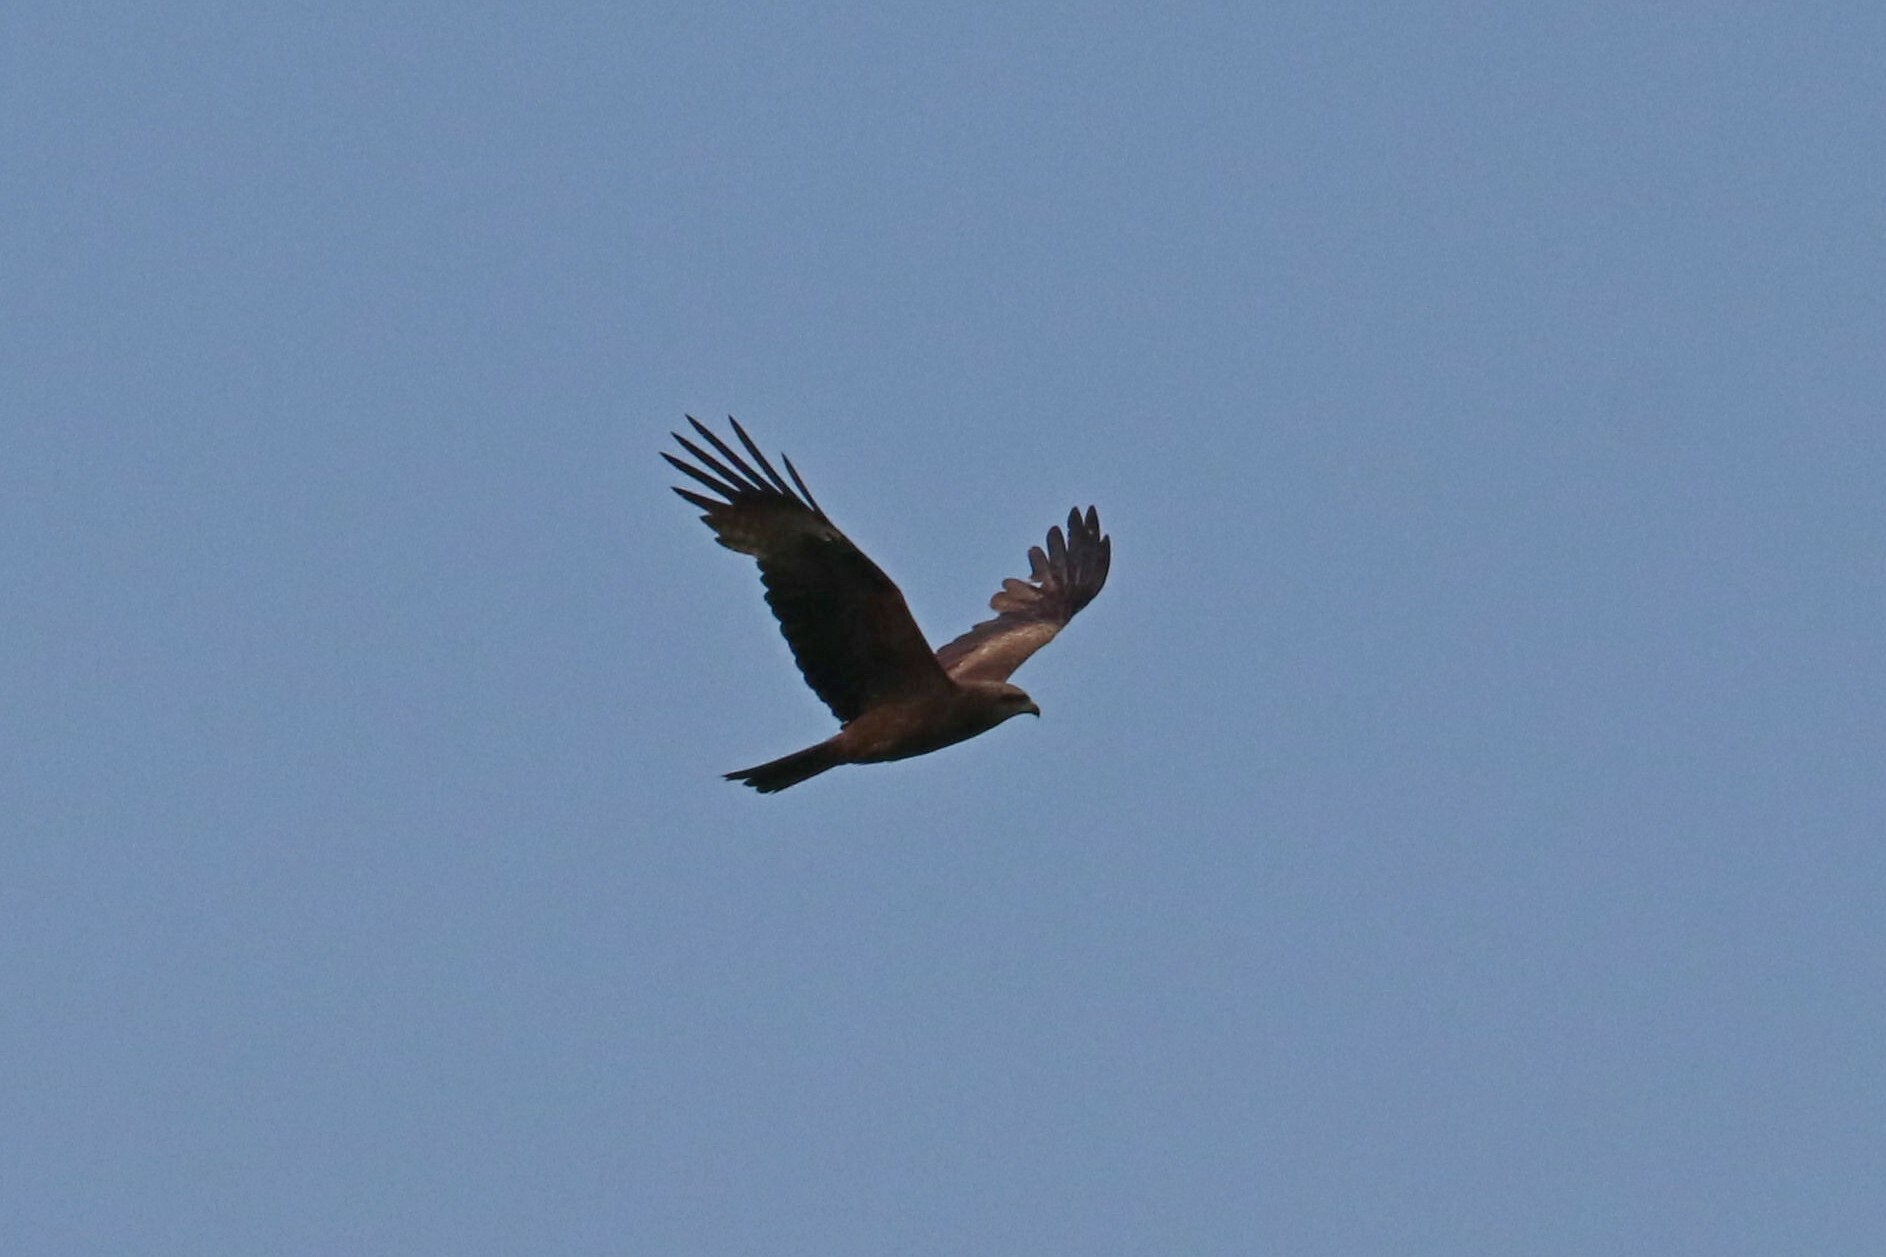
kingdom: Animalia
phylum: Chordata
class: Aves
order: Accipitriformes
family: Accipitridae
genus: Milvus
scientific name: Milvus migrans
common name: Black kite
